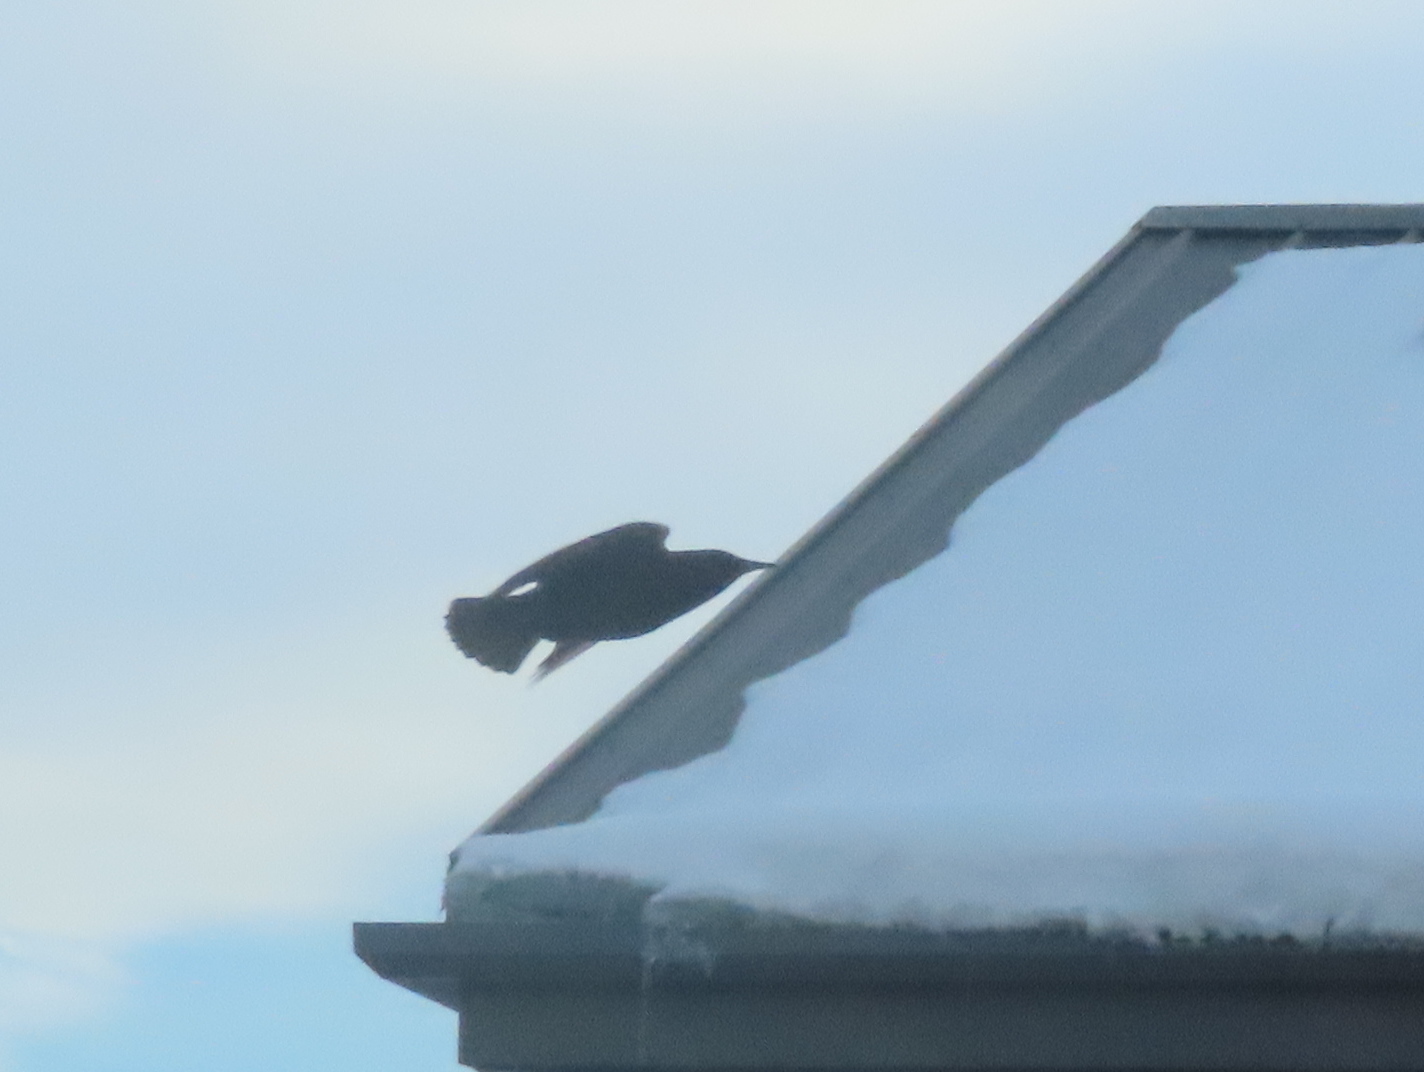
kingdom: Animalia
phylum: Chordata
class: Aves
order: Passeriformes
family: Sturnidae
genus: Sturnus
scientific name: Sturnus vulgaris
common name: Common starling
